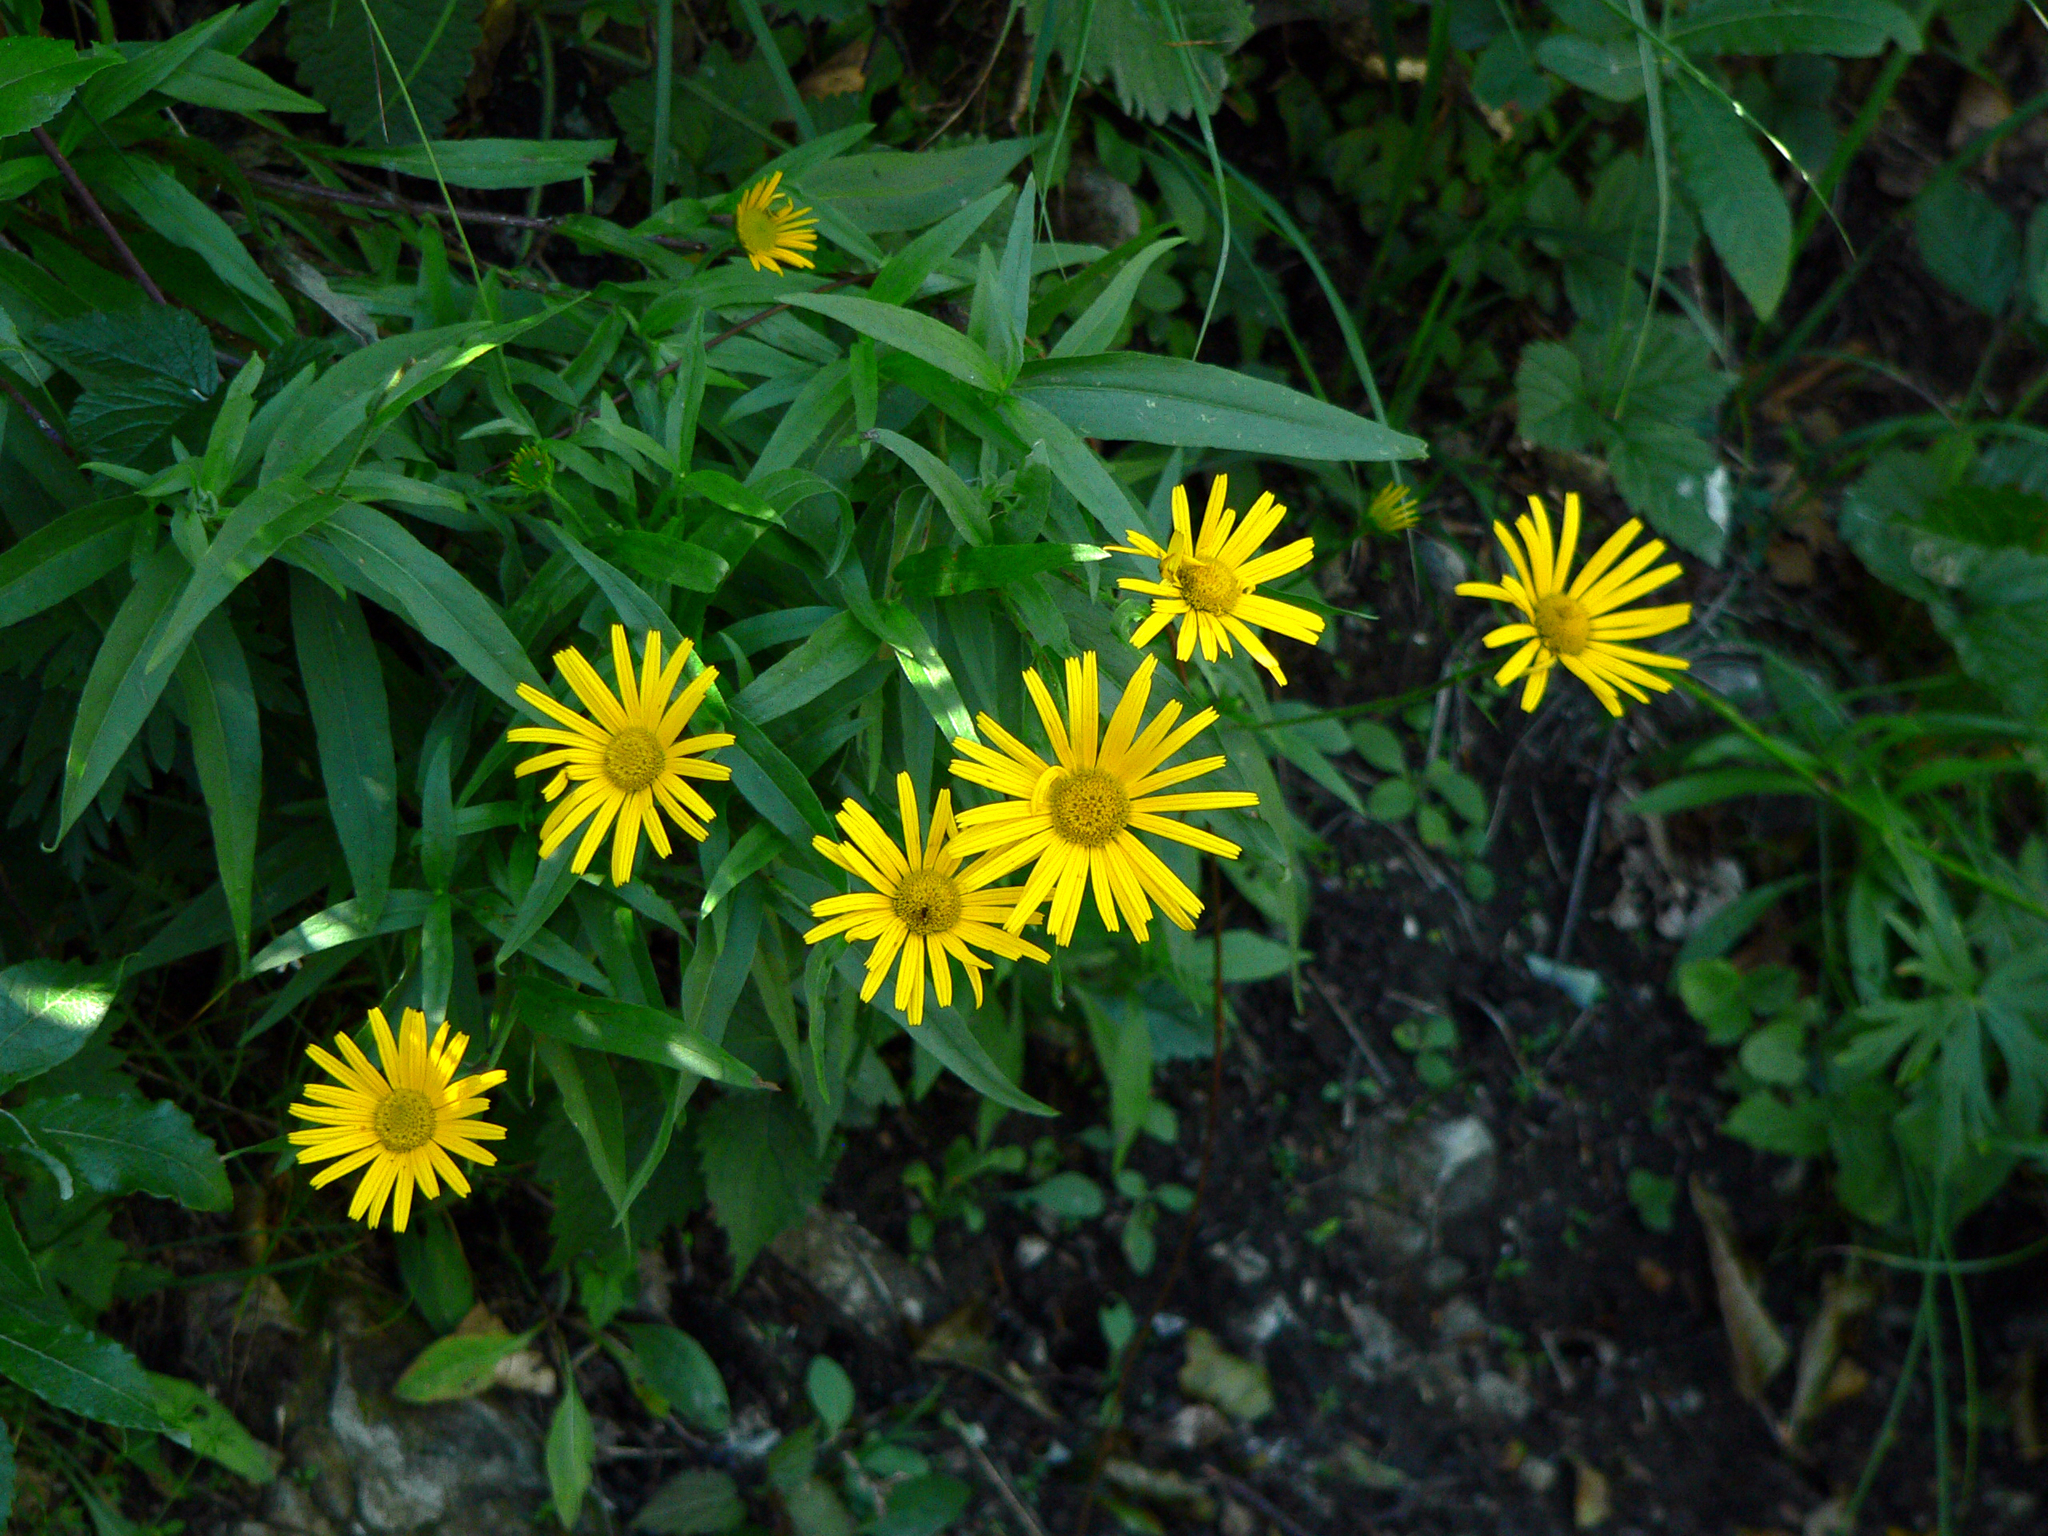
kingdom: Plantae
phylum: Tracheophyta
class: Magnoliopsida
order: Asterales
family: Asteraceae
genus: Buphthalmum
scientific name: Buphthalmum salicifolium
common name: Willow-leaved yellow-oxeye
